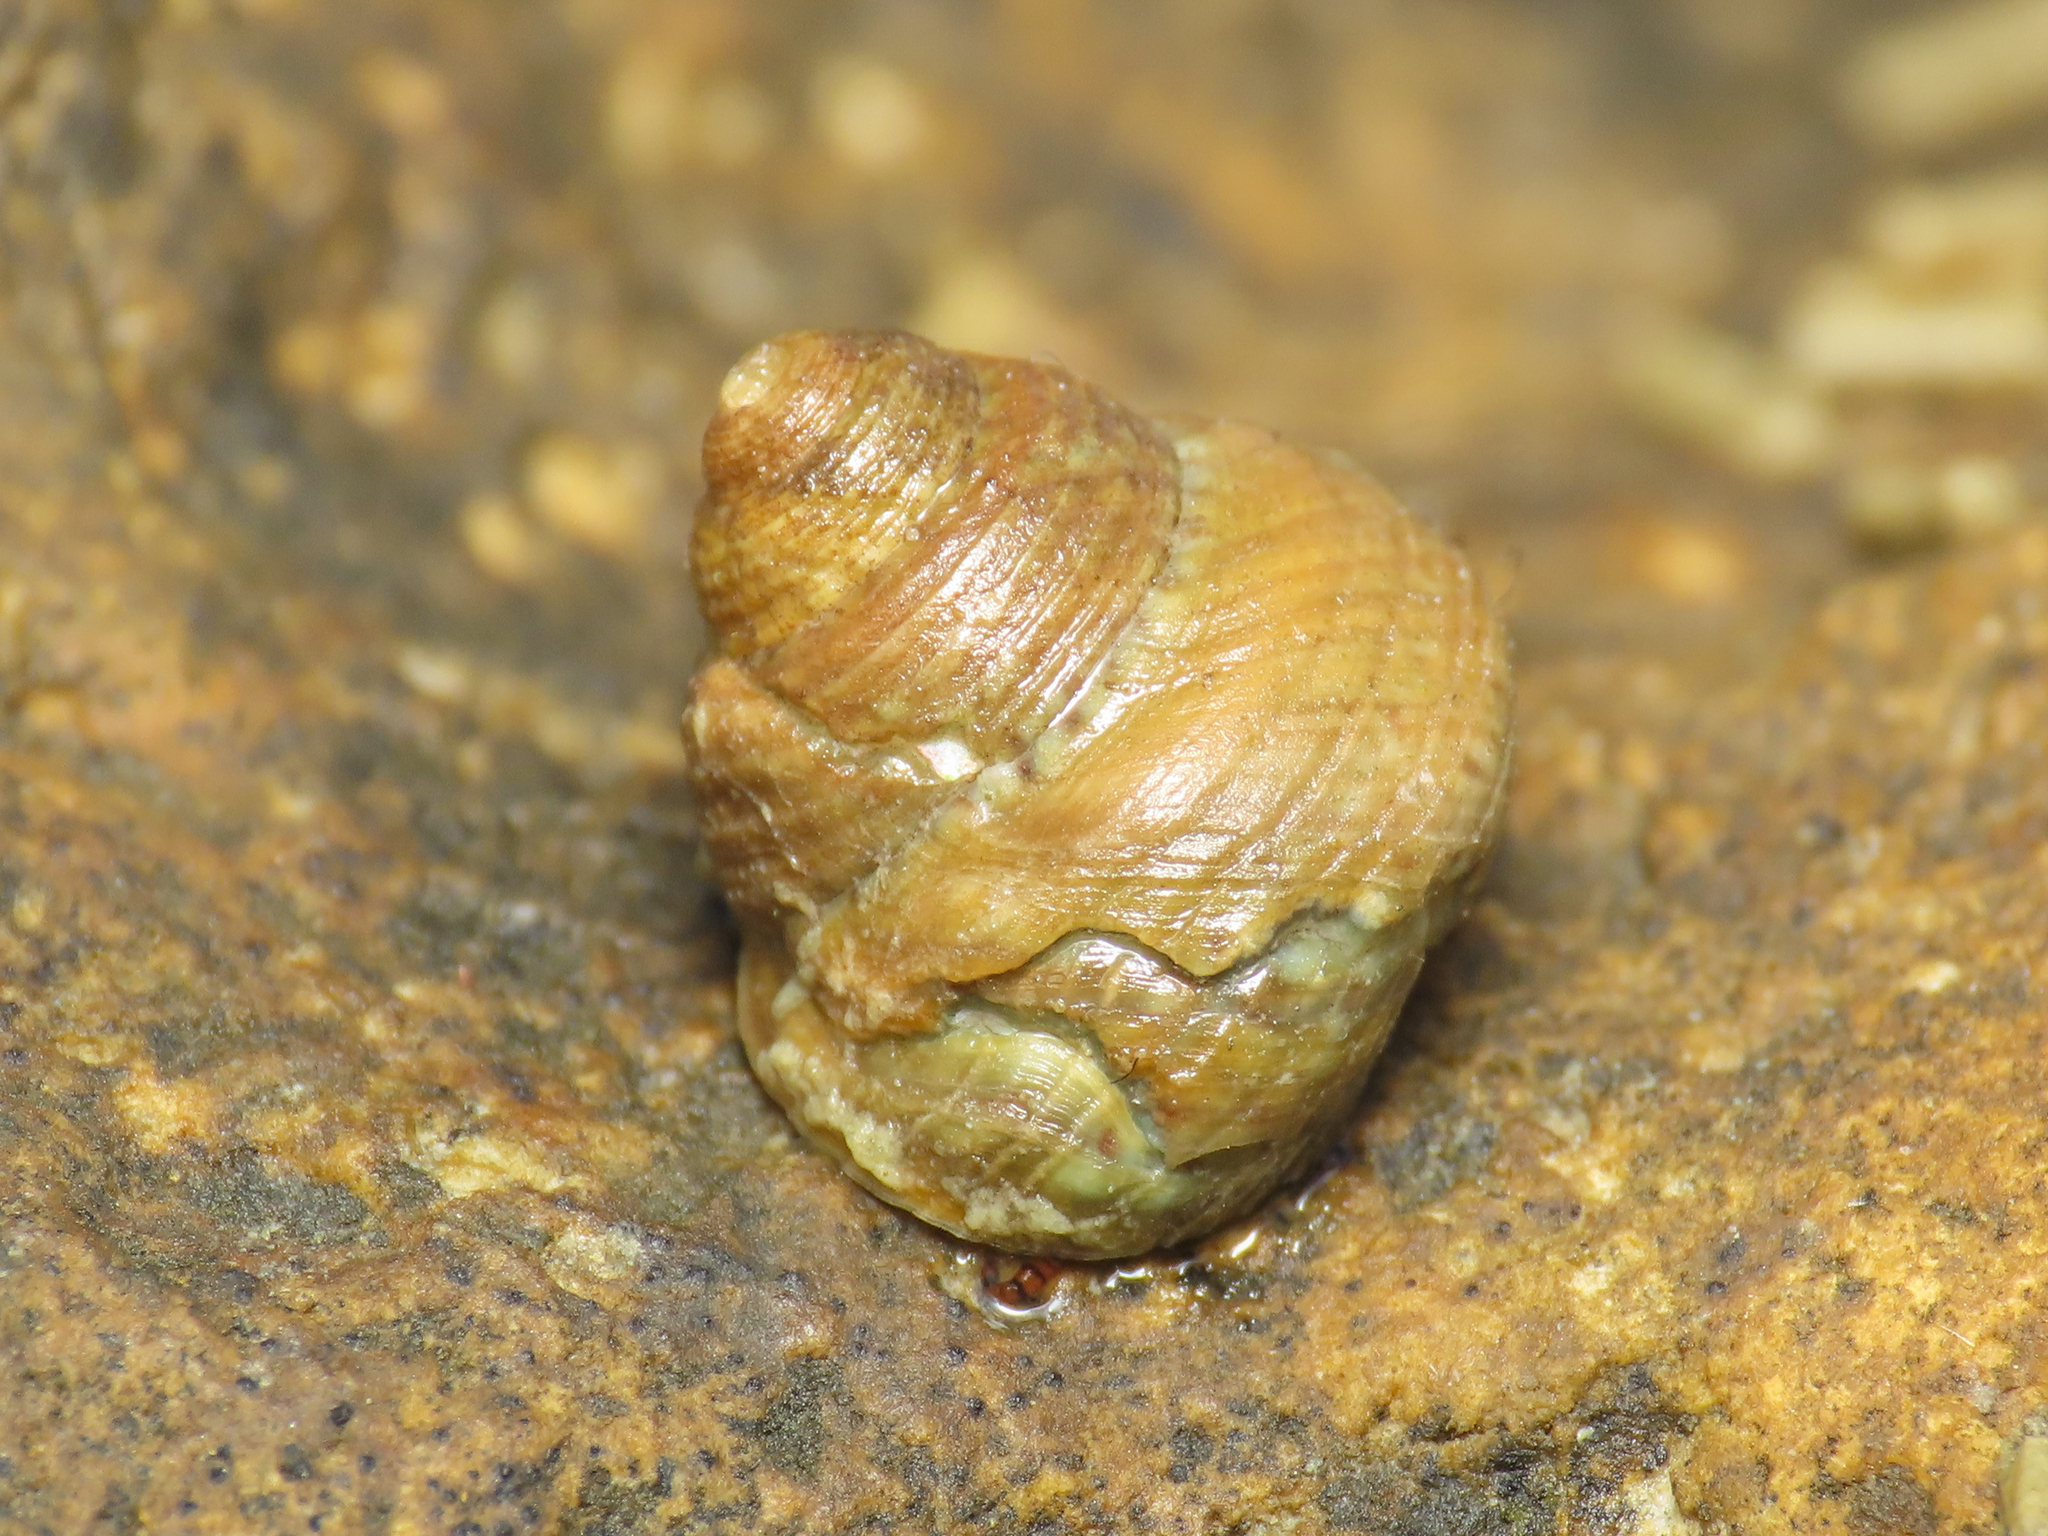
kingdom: Animalia
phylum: Mollusca
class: Gastropoda
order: Trochida
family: Trochidae
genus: Steromphala
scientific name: Steromphala albida
